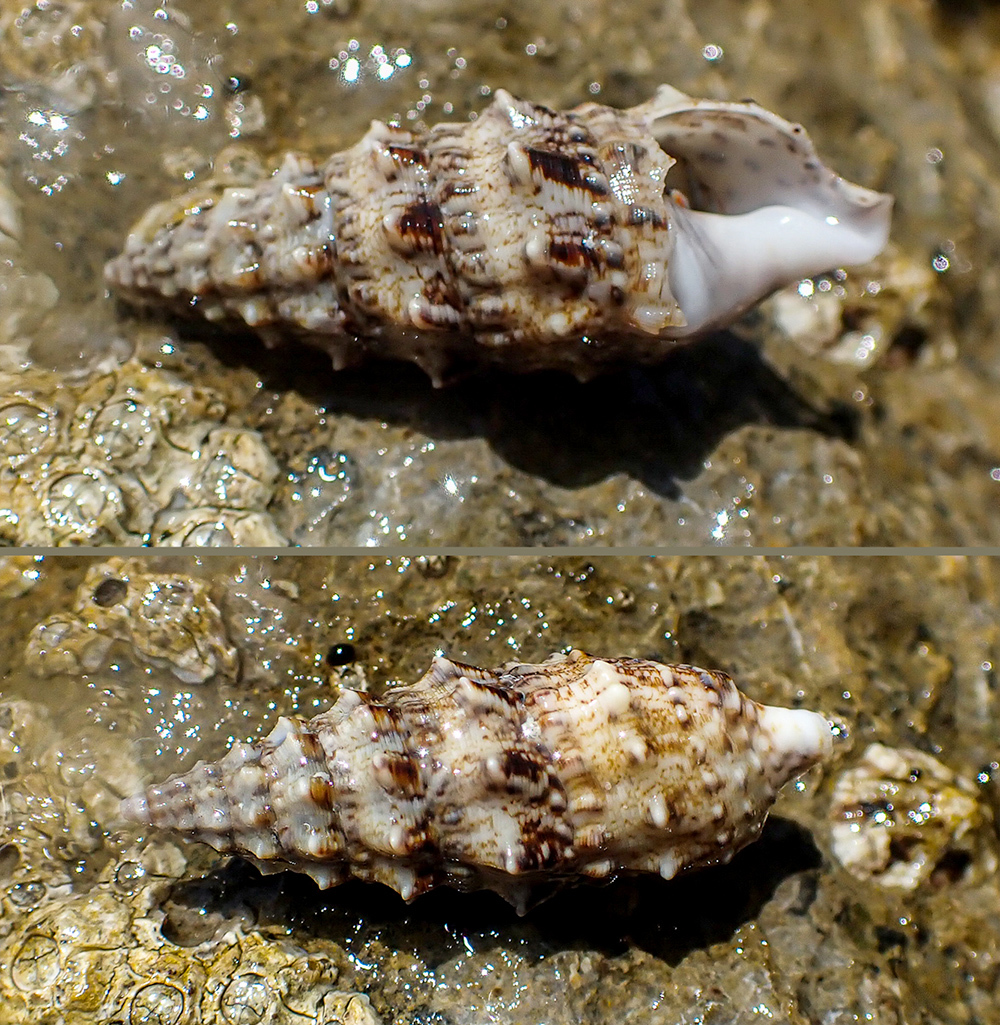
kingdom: Animalia
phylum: Mollusca
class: Gastropoda
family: Cerithiidae
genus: Cerithium
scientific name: Cerithium vulgatum
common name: European cerith
